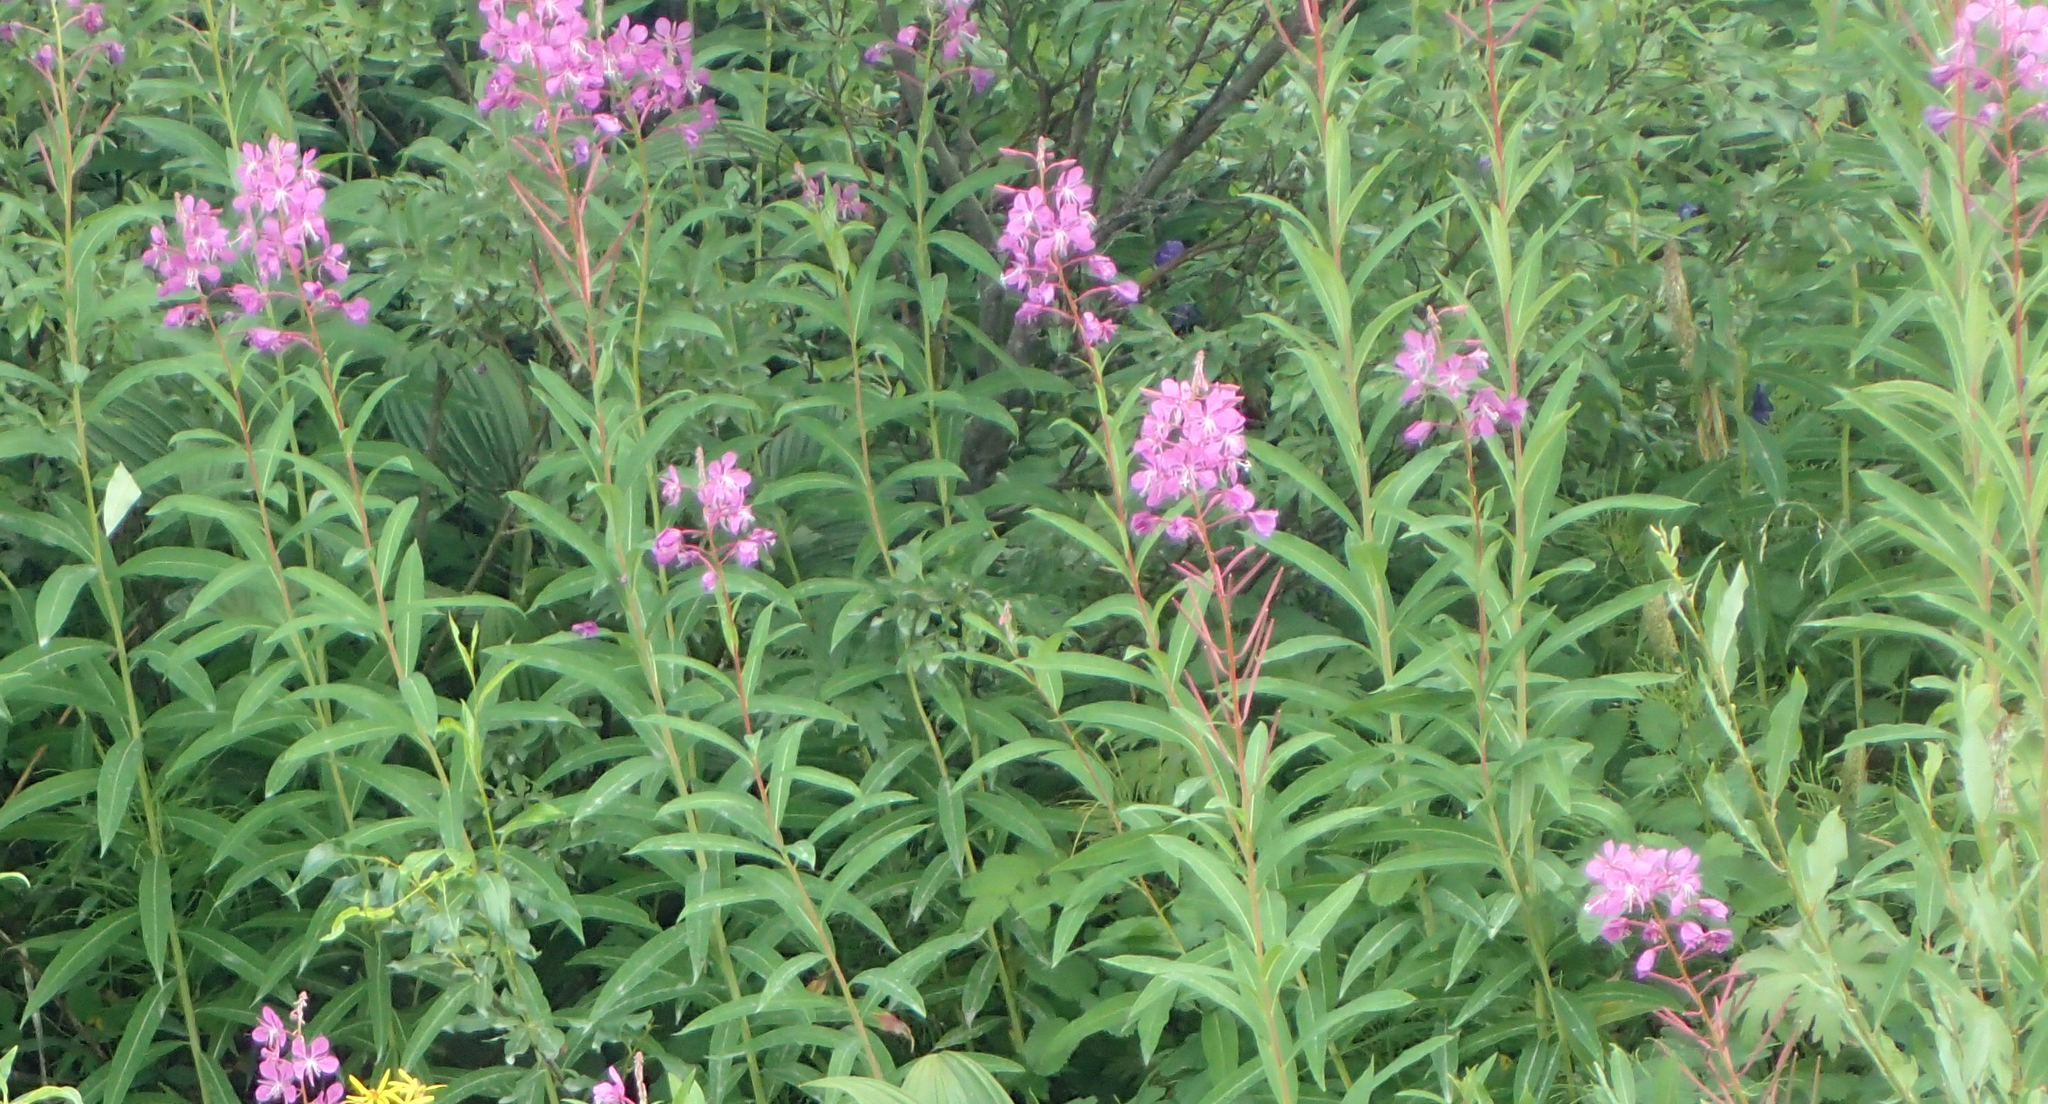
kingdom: Plantae
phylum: Tracheophyta
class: Magnoliopsida
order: Myrtales
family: Onagraceae
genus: Chamaenerion
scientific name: Chamaenerion angustifolium
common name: Fireweed
